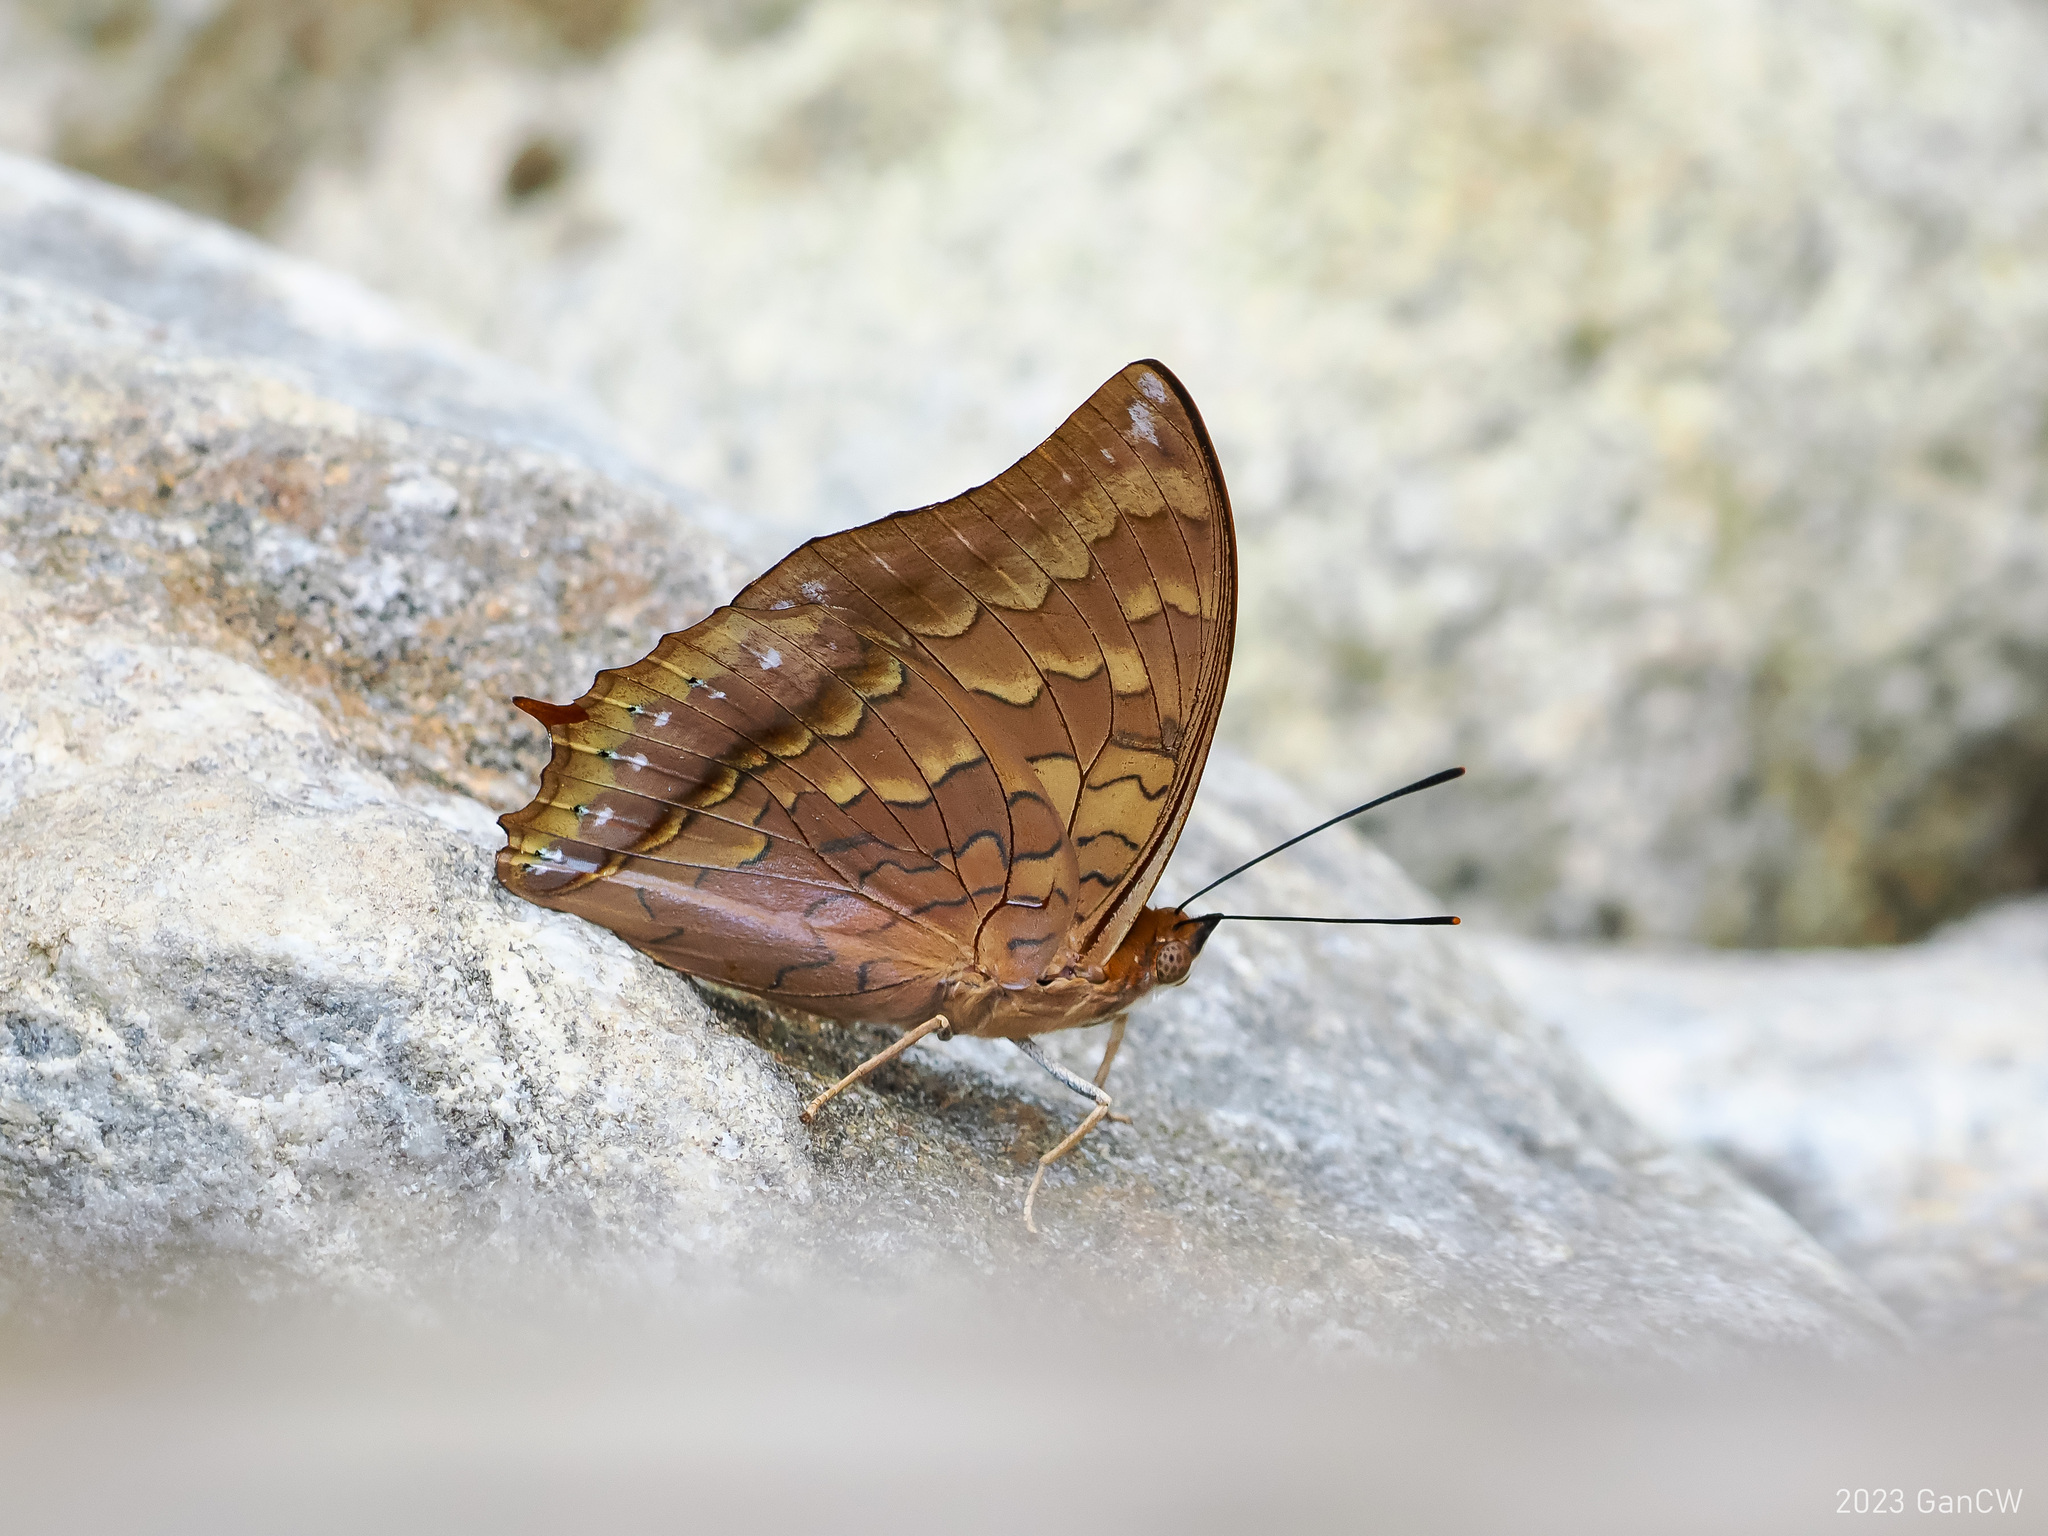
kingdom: Animalia
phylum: Arthropoda
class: Insecta
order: Lepidoptera
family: Nymphalidae
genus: Charaxes
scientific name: Charaxes musashi
